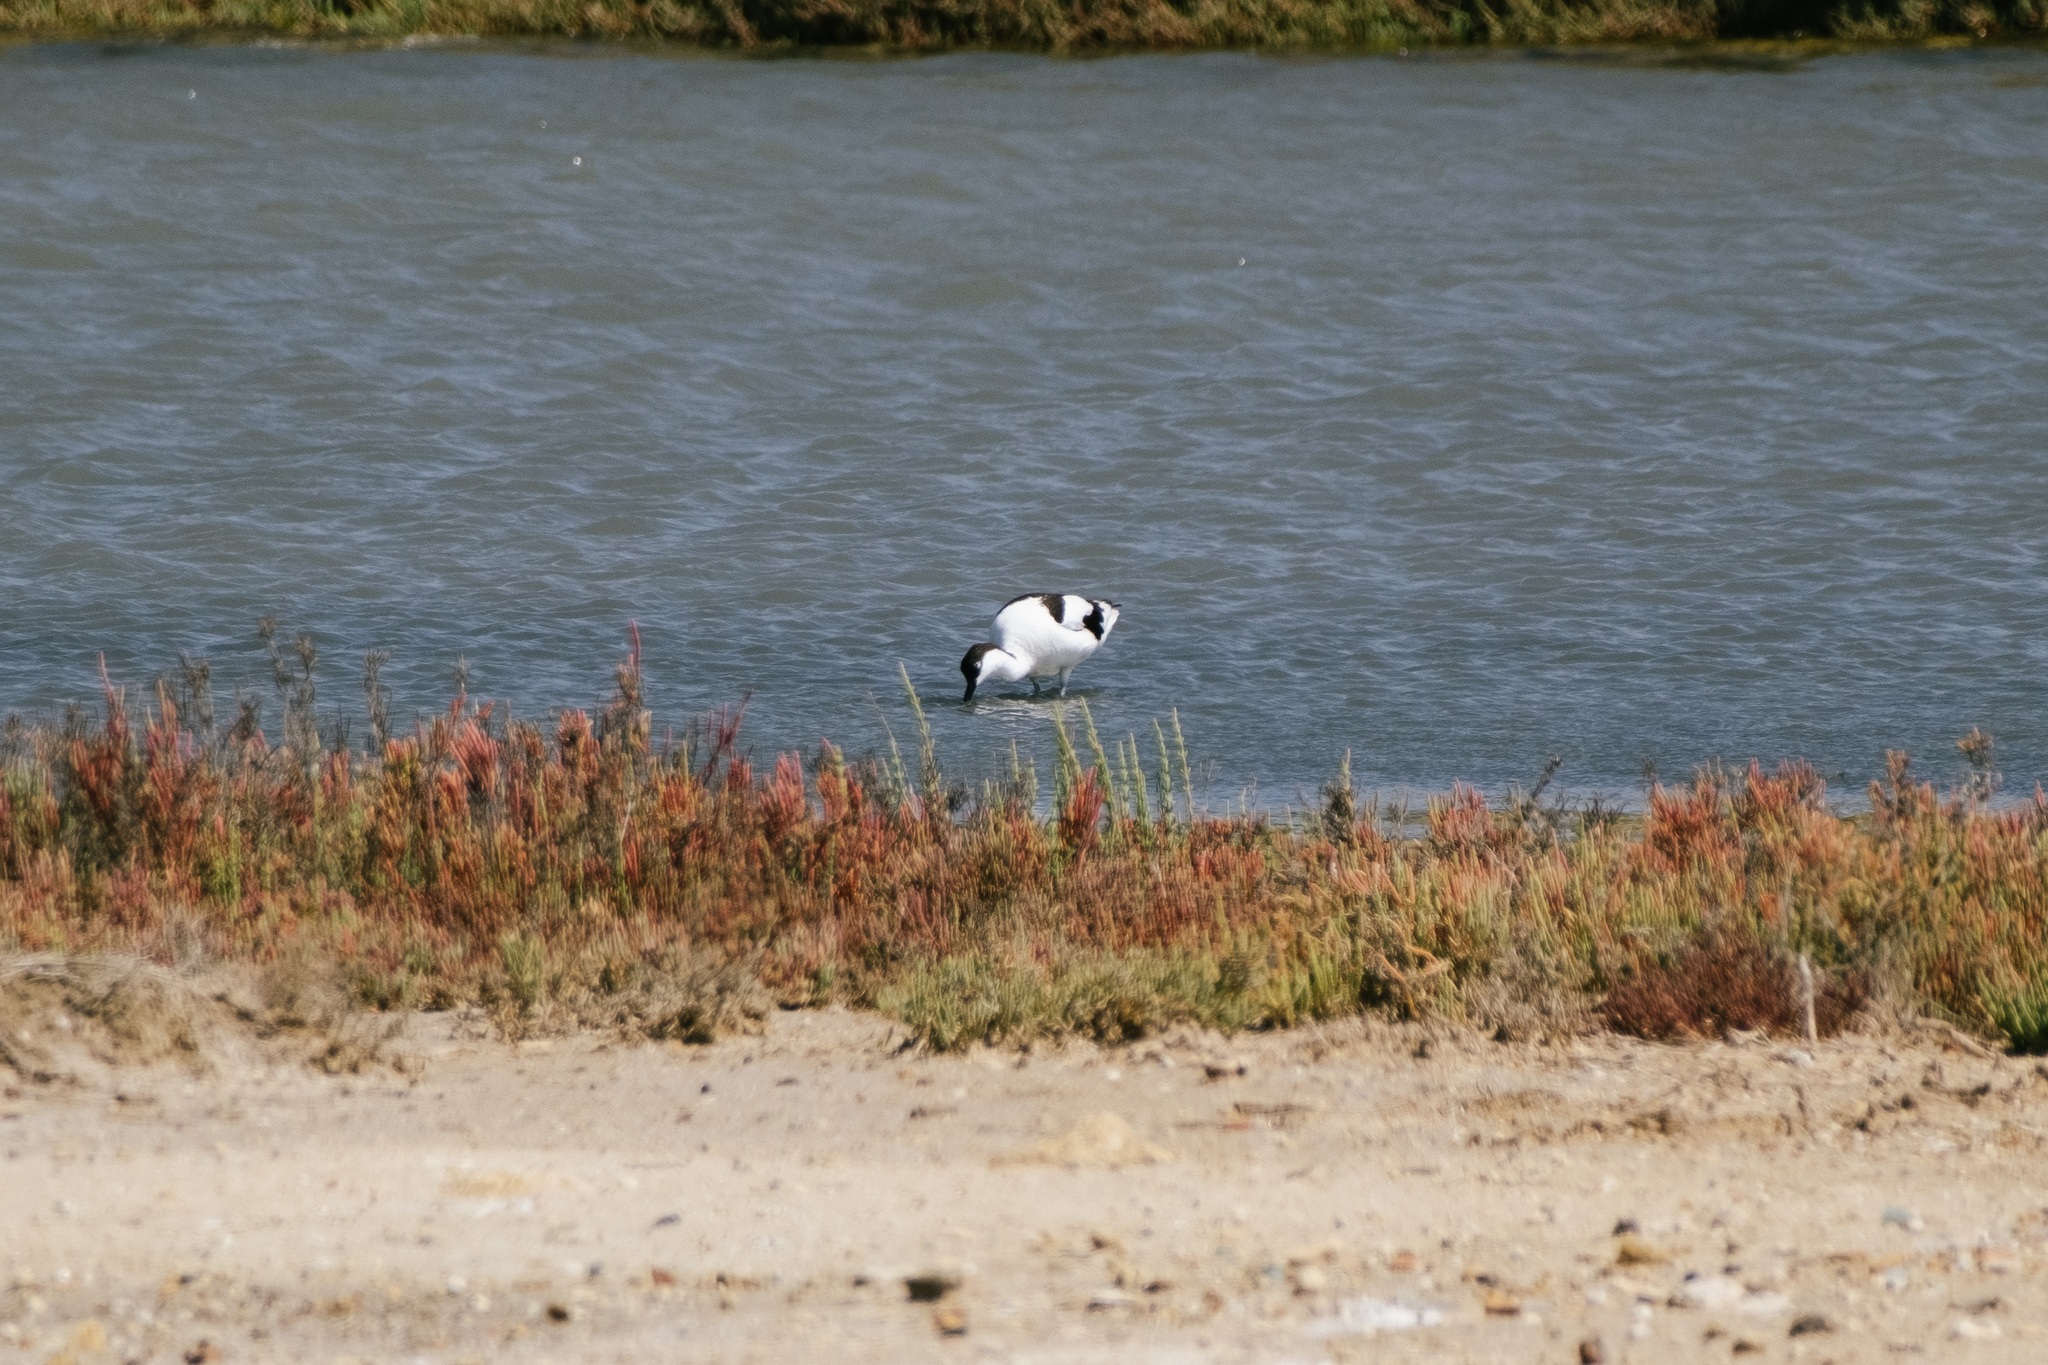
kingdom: Animalia
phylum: Chordata
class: Aves
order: Charadriiformes
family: Recurvirostridae
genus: Recurvirostra
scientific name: Recurvirostra avosetta
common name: Pied avocet
